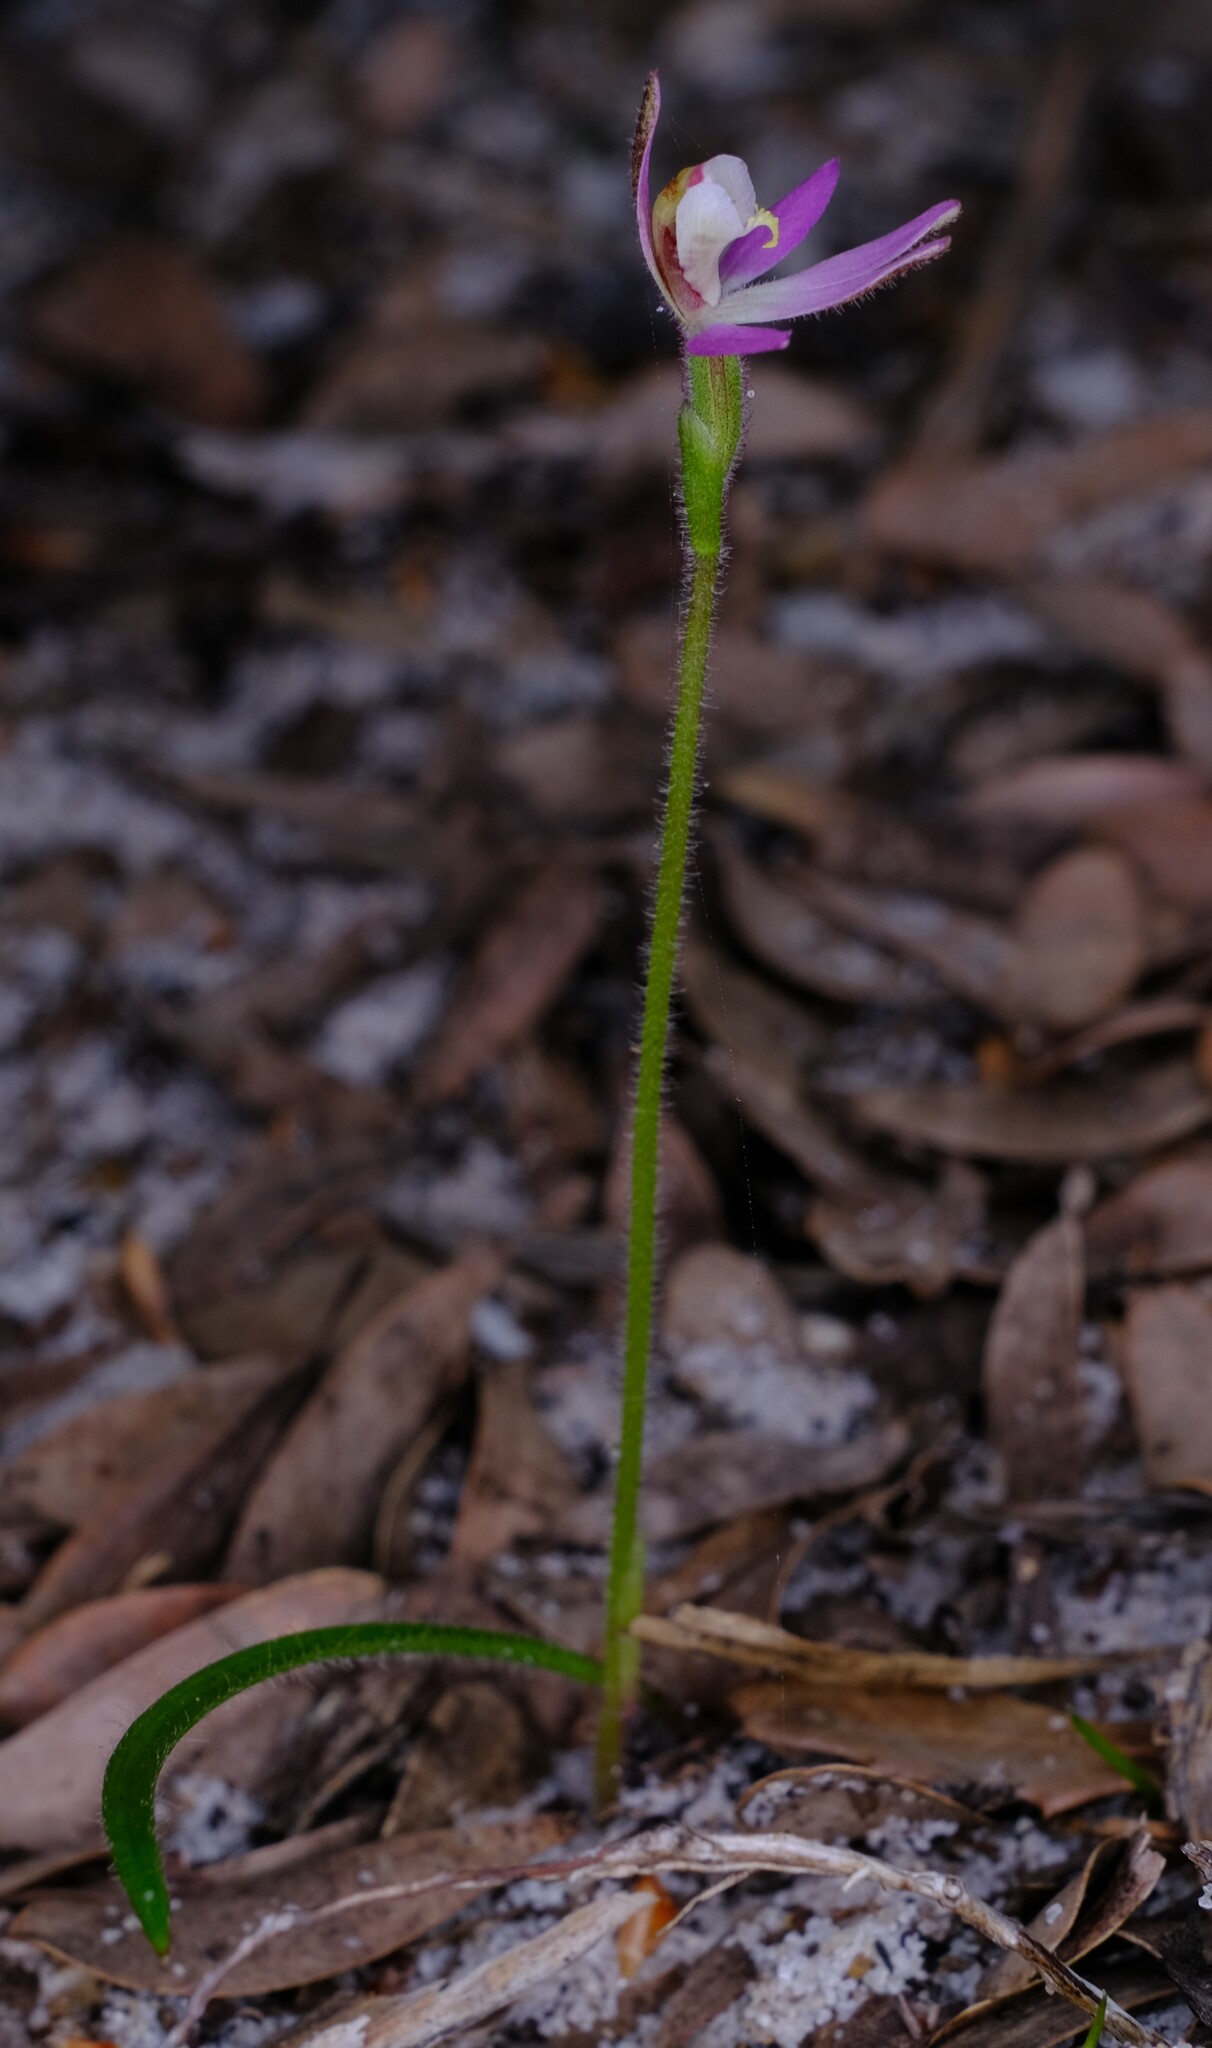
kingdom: Plantae
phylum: Tracheophyta
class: Liliopsida
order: Asparagales
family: Orchidaceae
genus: Caladenia
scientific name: Caladenia pusilla
